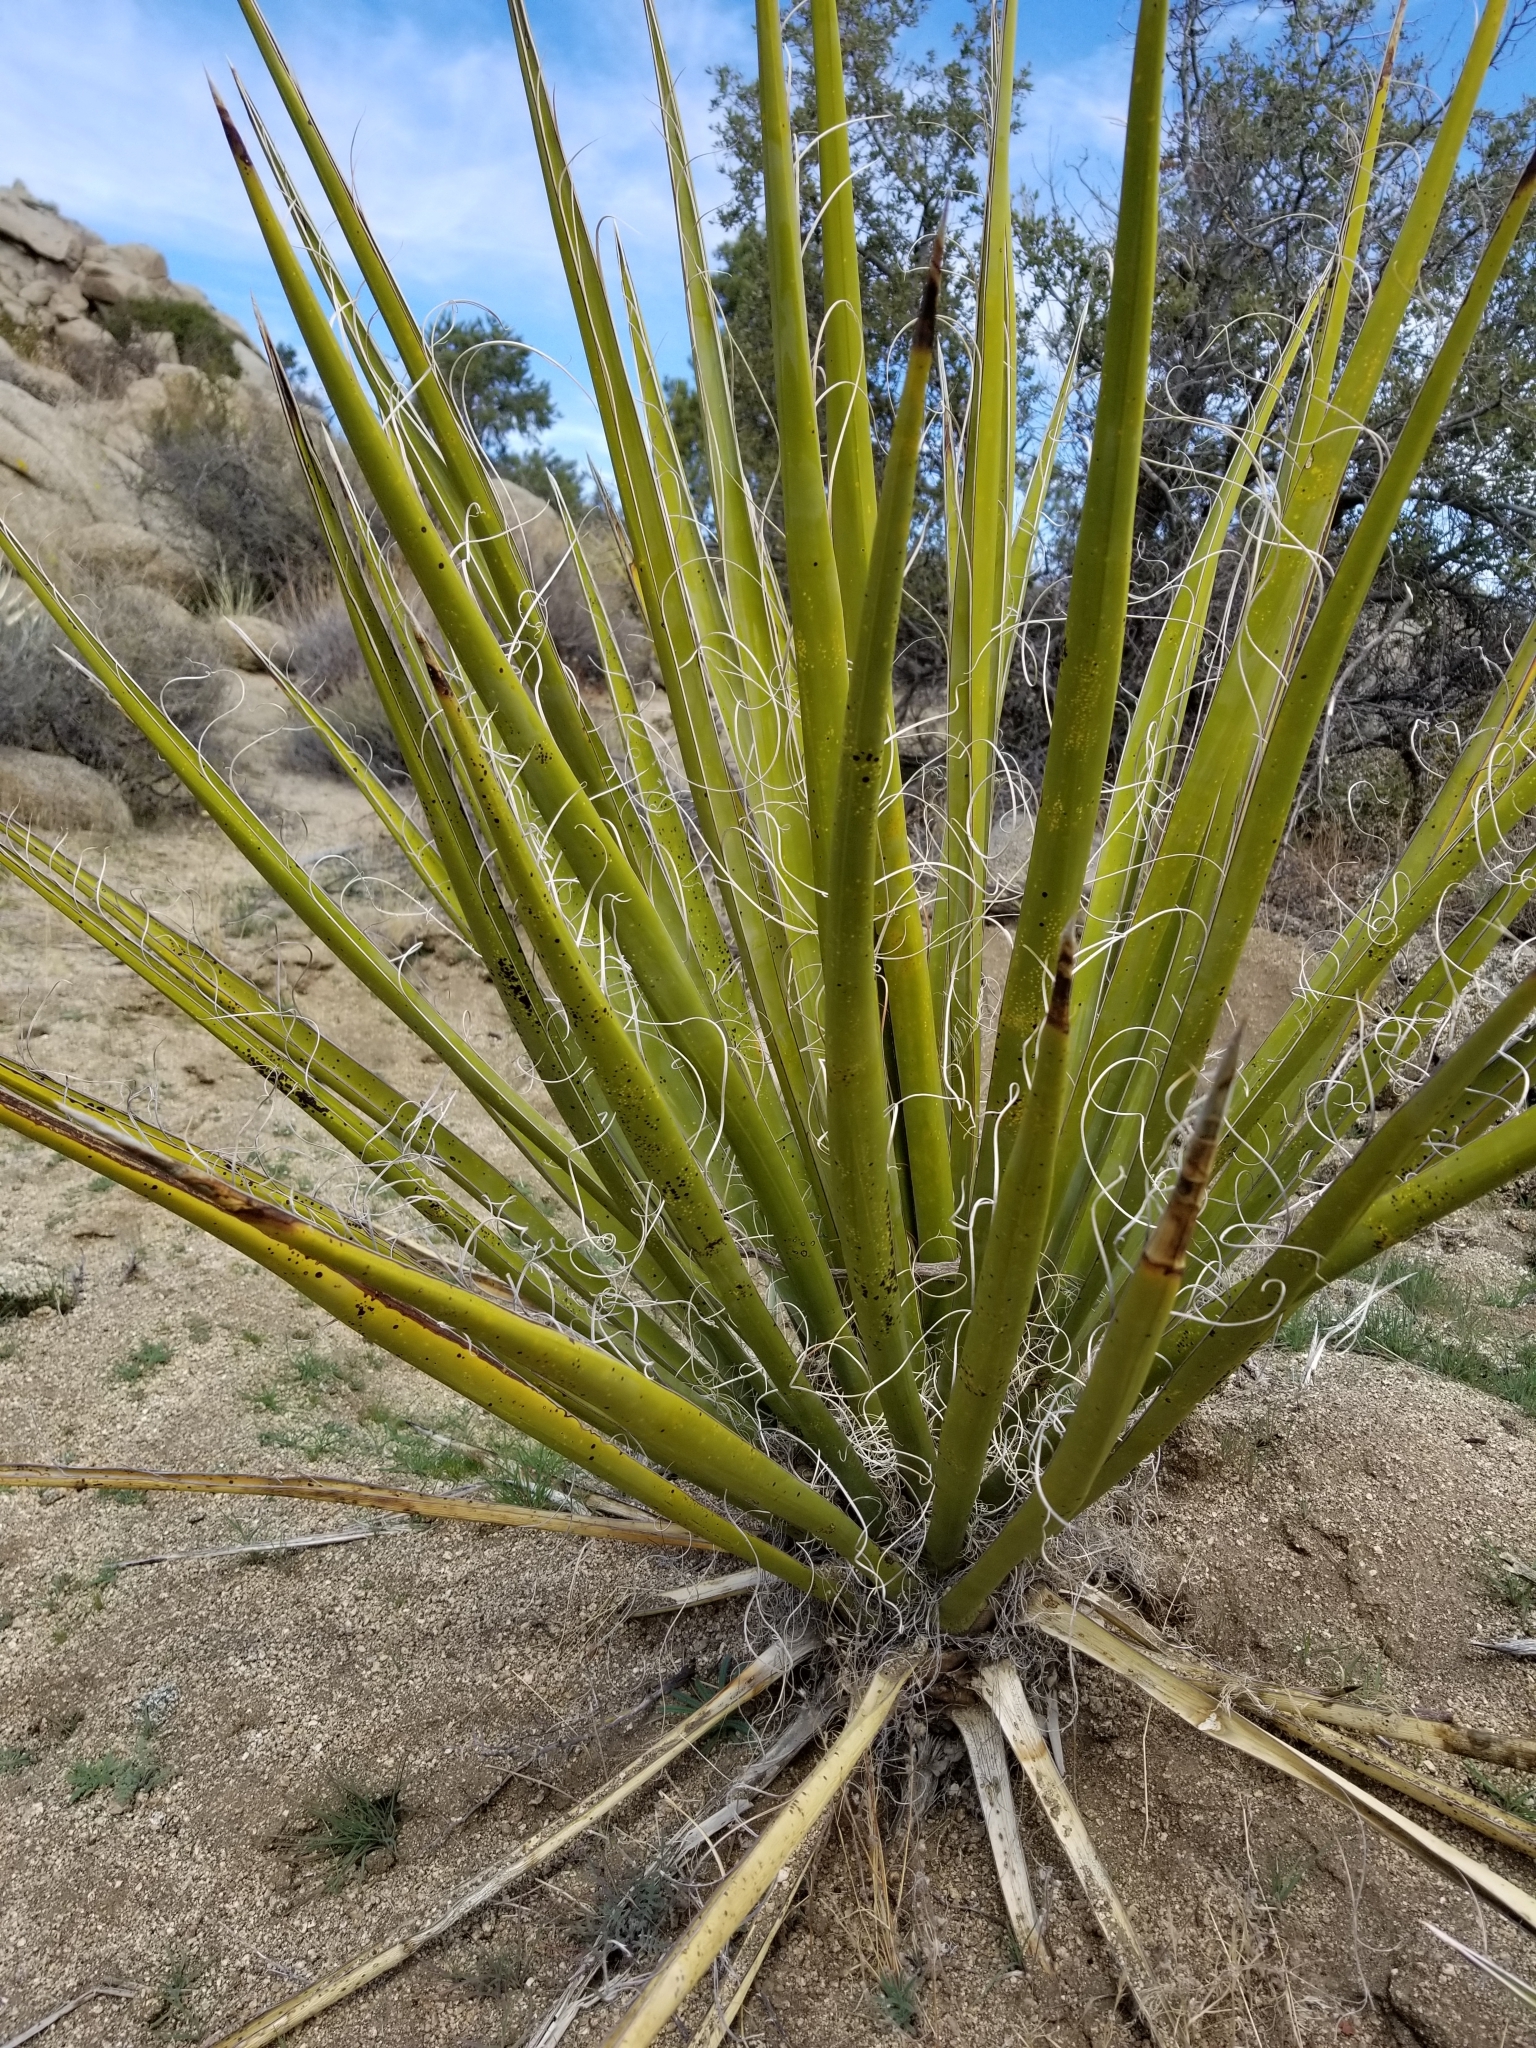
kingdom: Plantae
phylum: Tracheophyta
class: Liliopsida
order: Asparagales
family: Asparagaceae
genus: Yucca
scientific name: Yucca schidigera
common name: Mojave yucca
